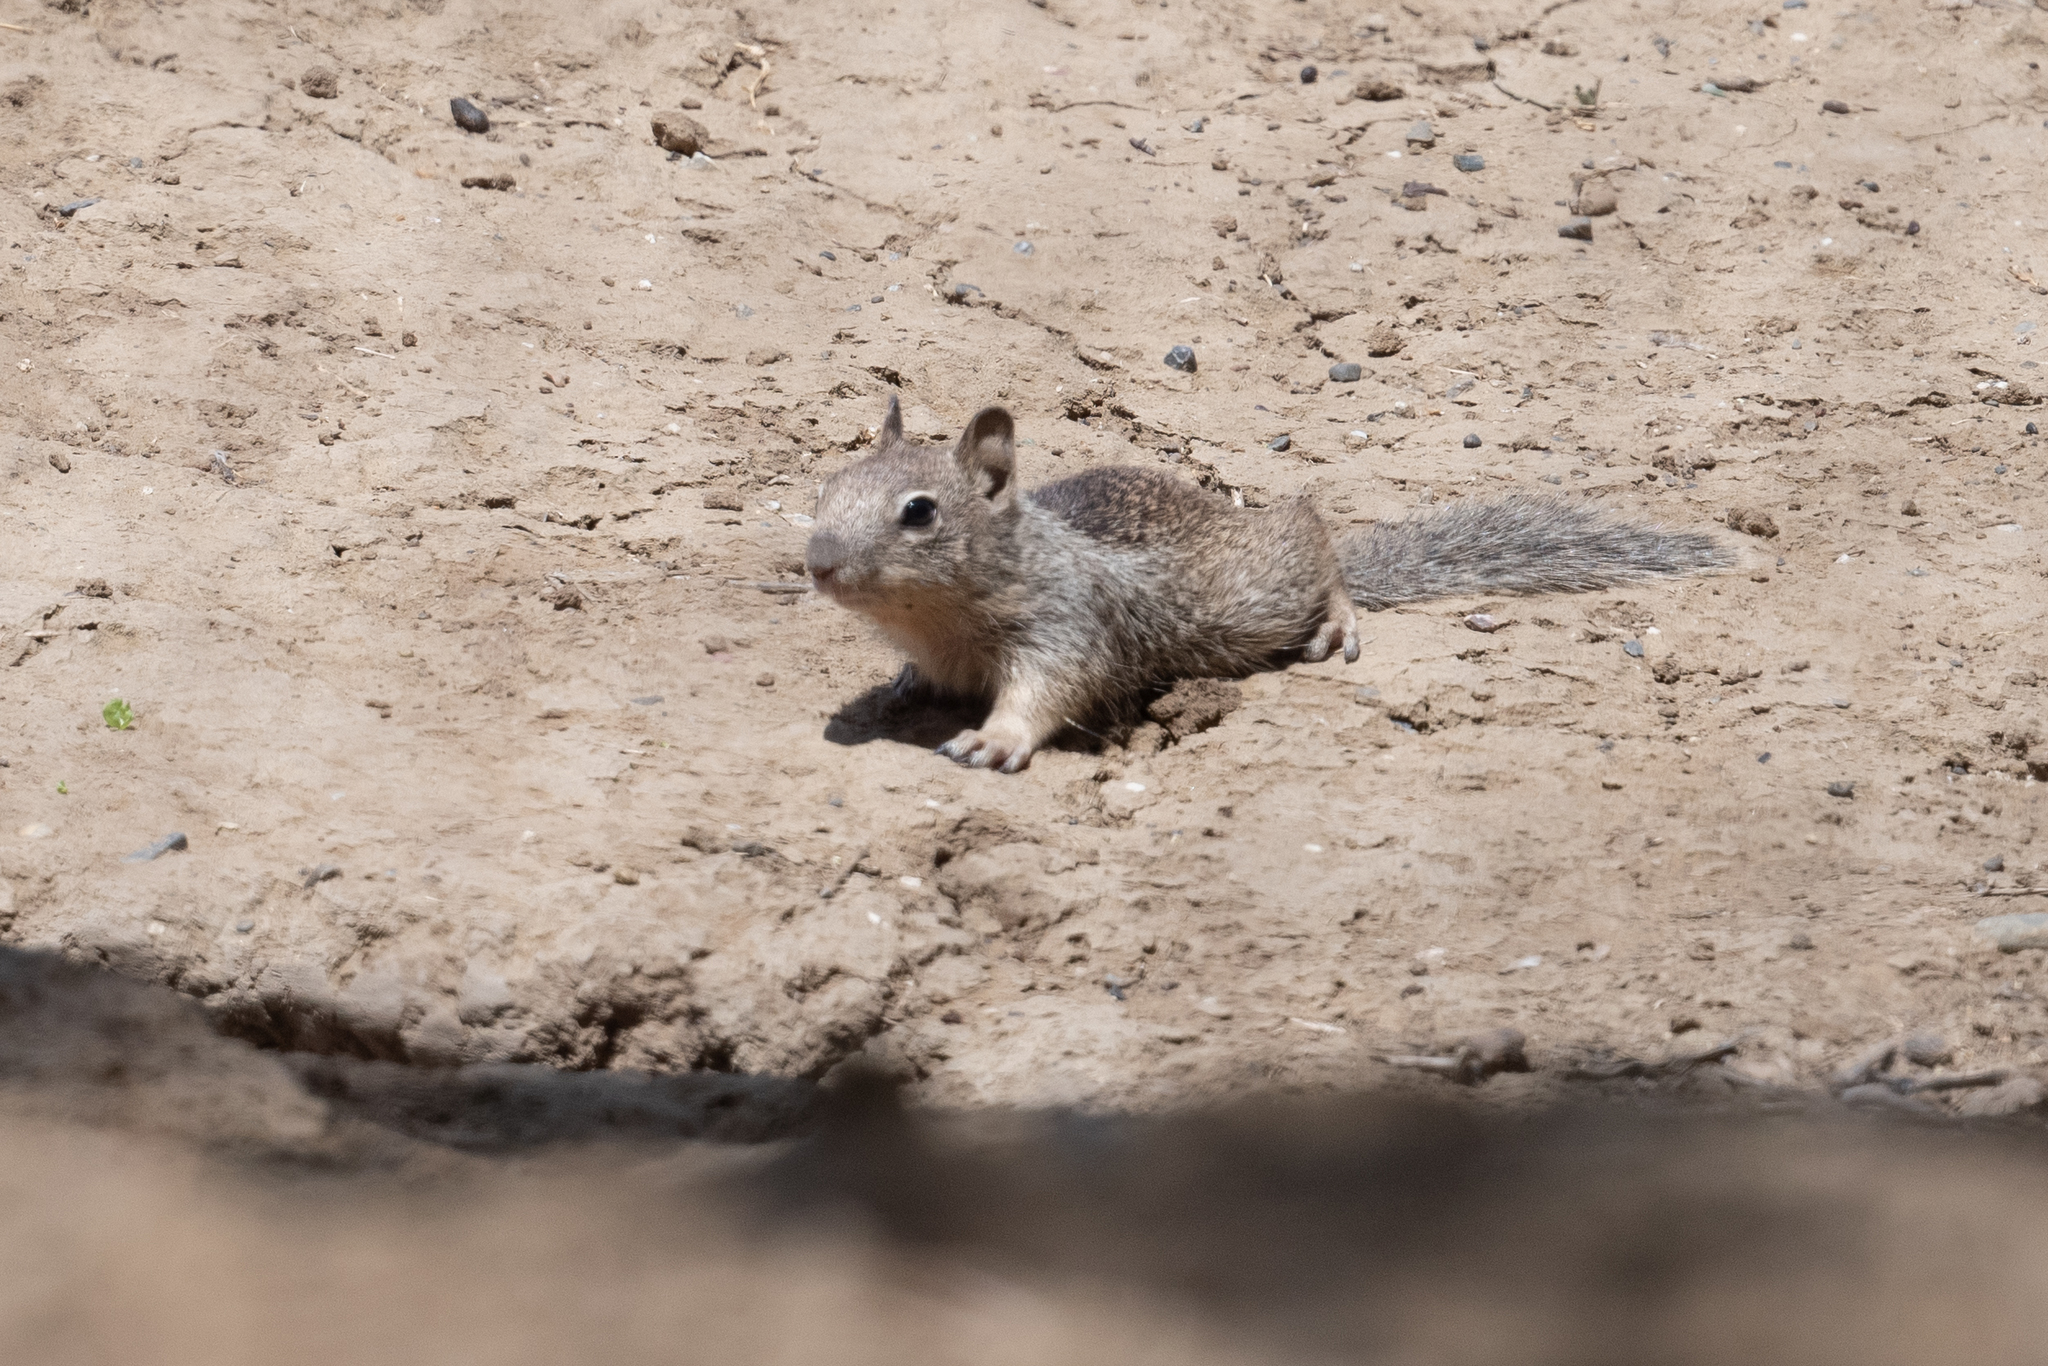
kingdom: Animalia
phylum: Chordata
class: Mammalia
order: Rodentia
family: Sciuridae
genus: Otospermophilus
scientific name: Otospermophilus beecheyi
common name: California ground squirrel
